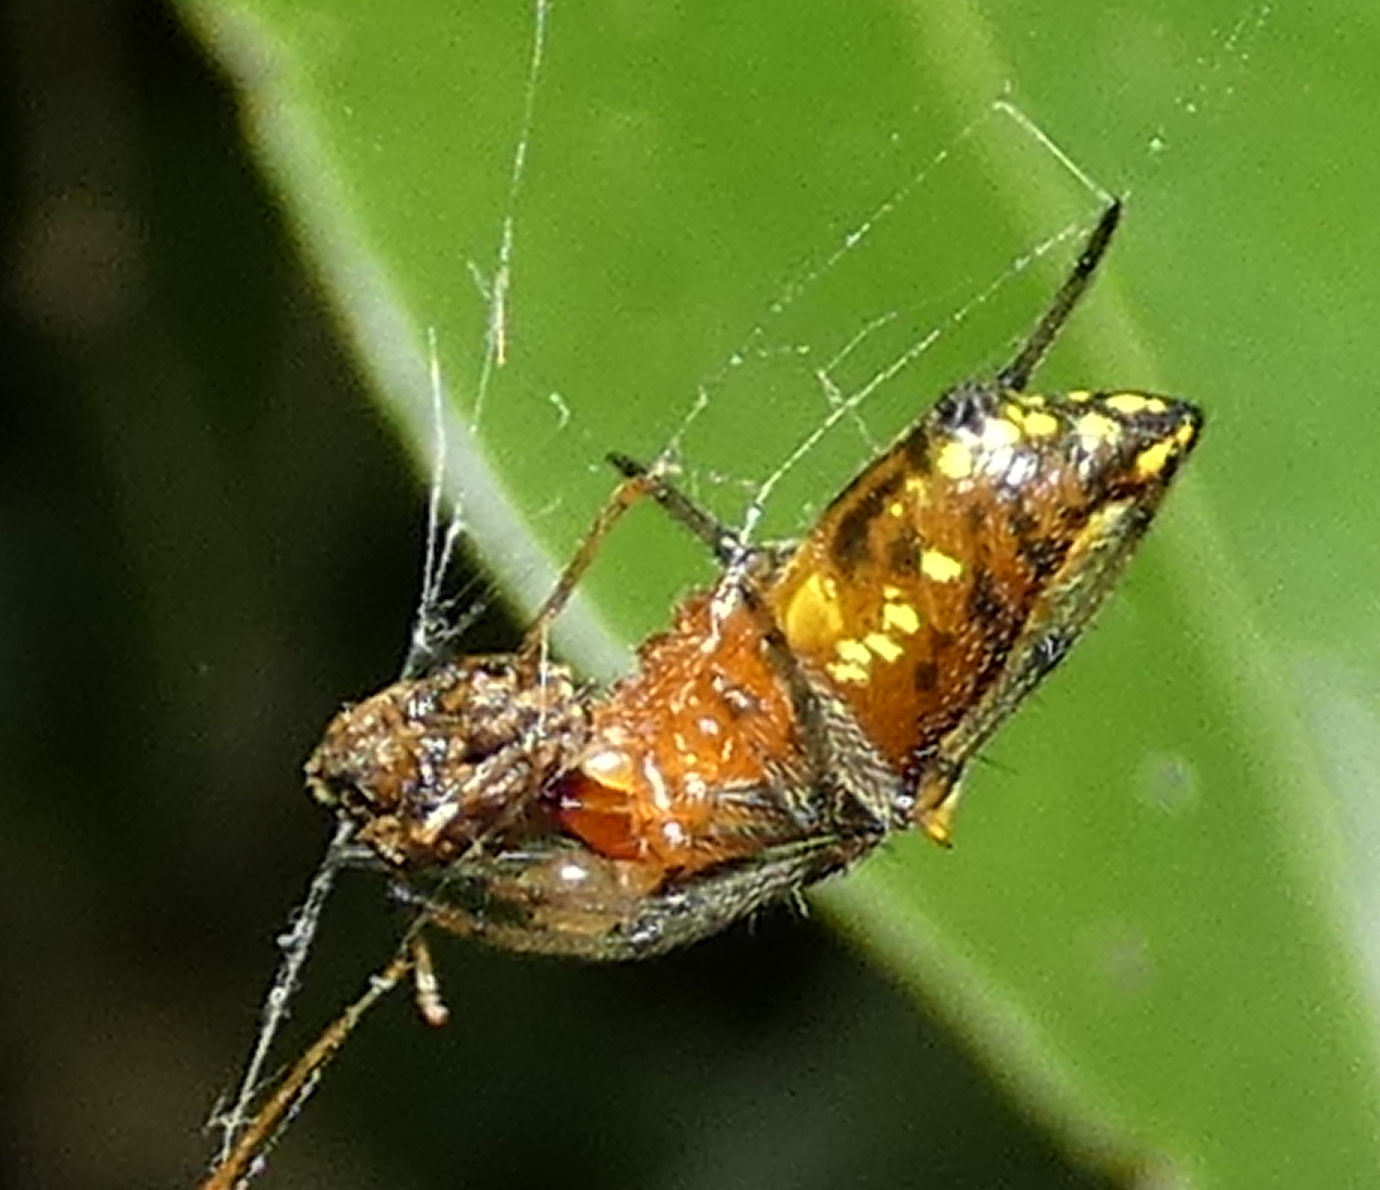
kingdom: Animalia
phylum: Arthropoda
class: Arachnida
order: Araneae
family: Araneidae
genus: Alpaida
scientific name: Alpaida bicornuta
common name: Orb weavers
